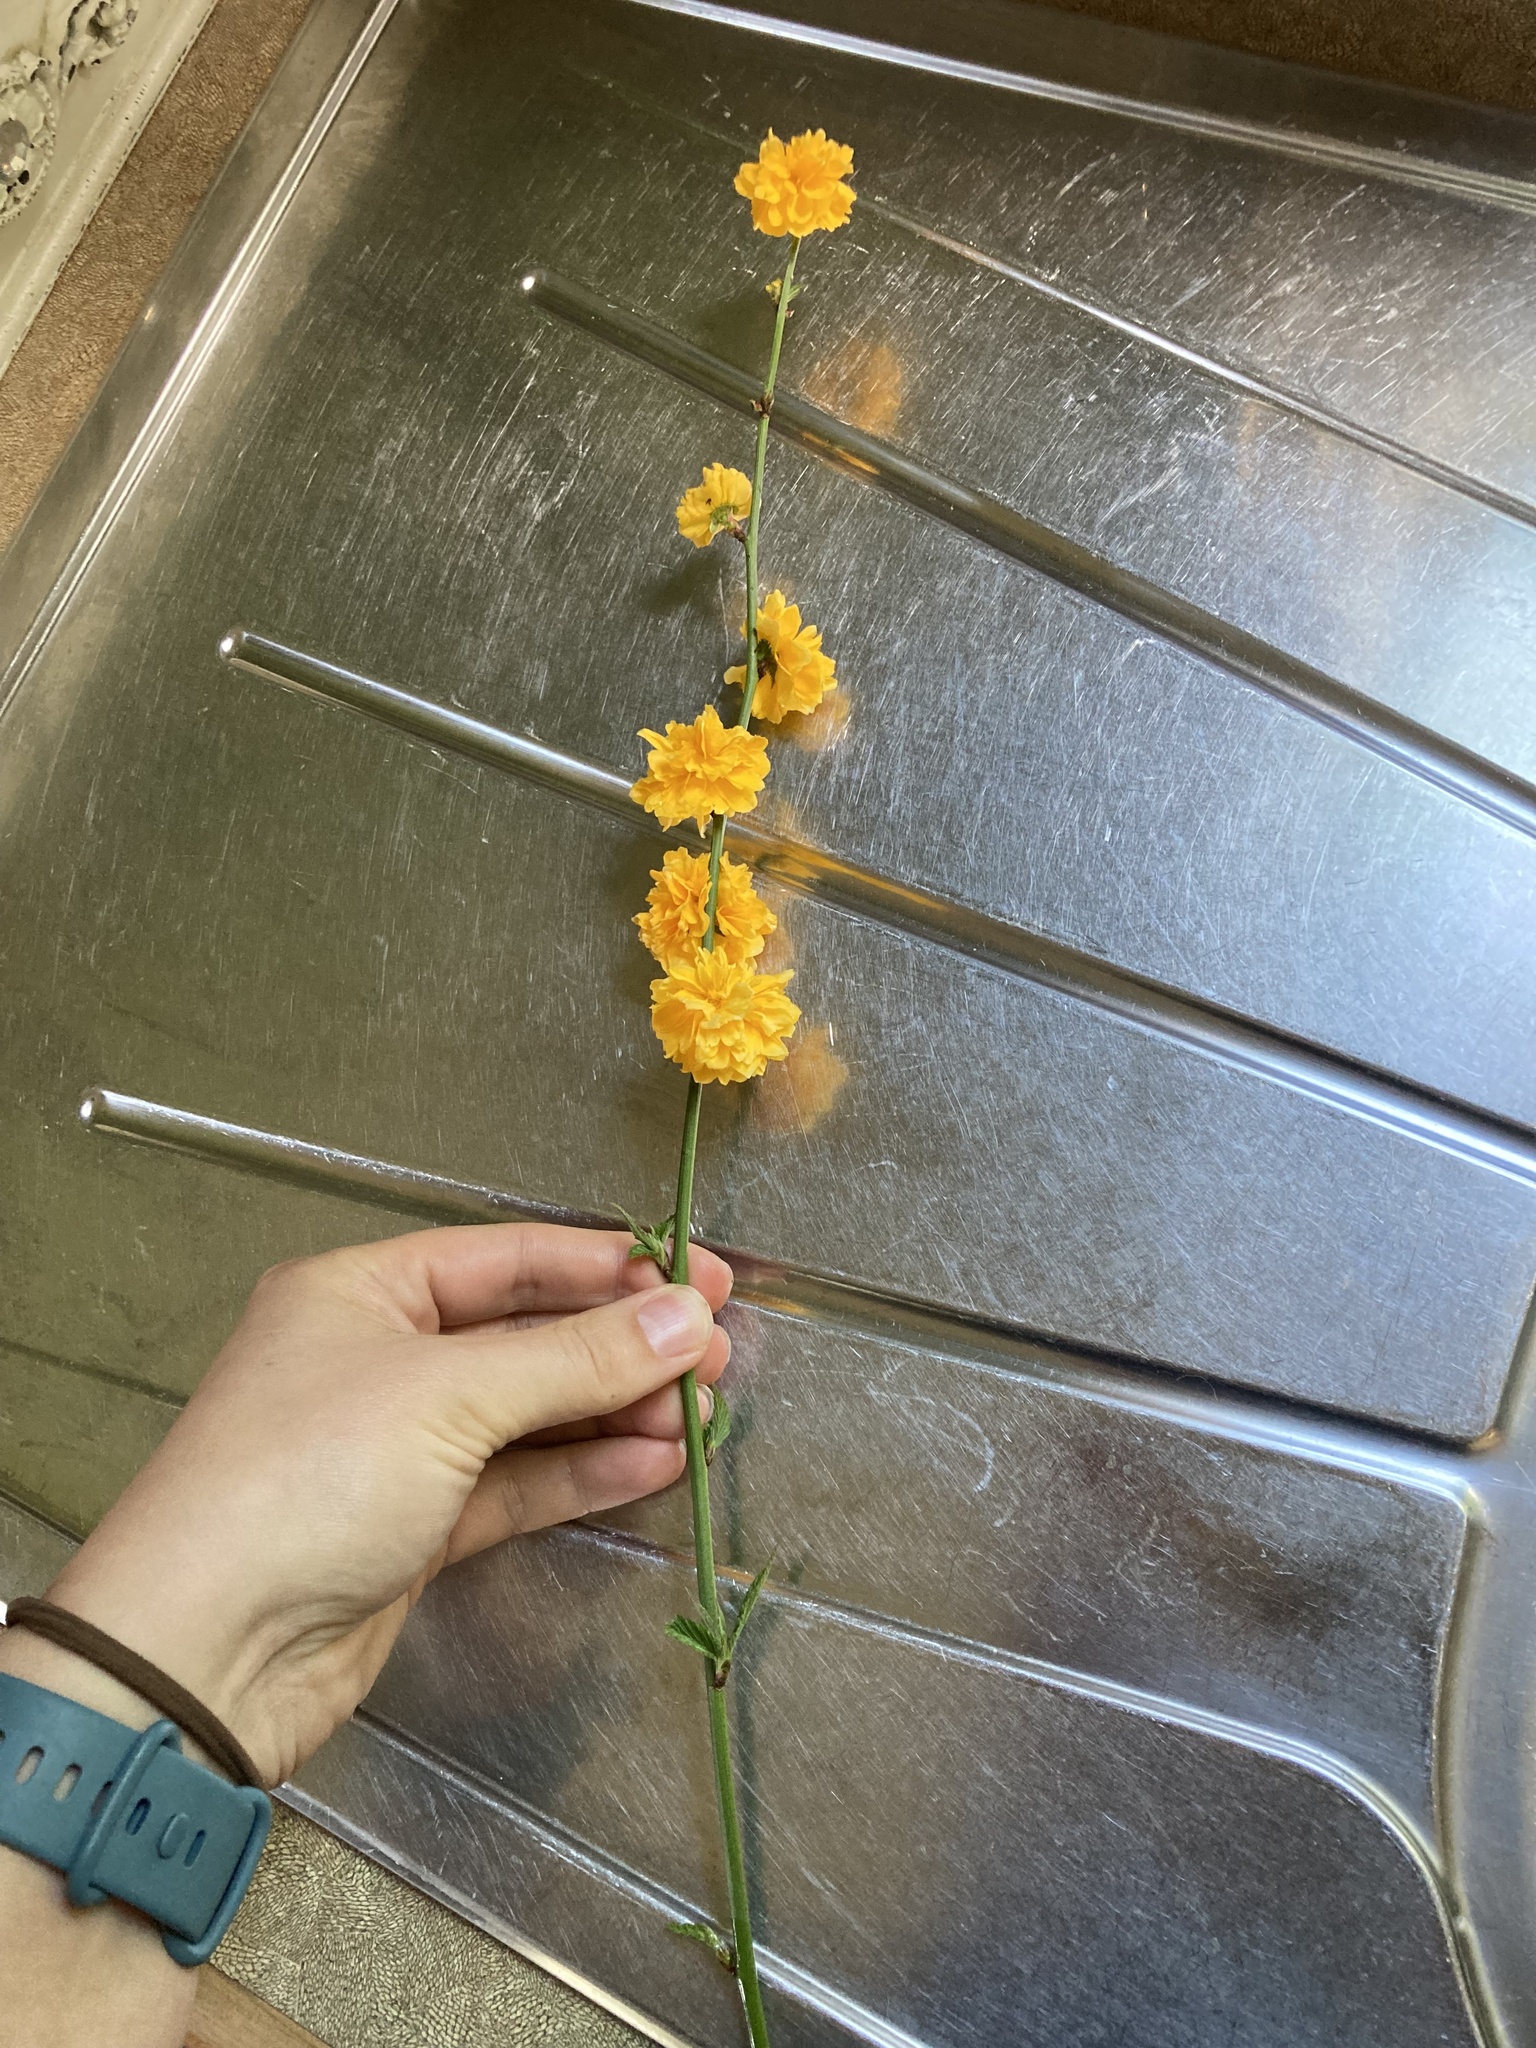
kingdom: Plantae
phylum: Tracheophyta
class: Magnoliopsida
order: Rosales
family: Rosaceae
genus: Kerria
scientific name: Kerria japonica
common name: Japanese kerria
